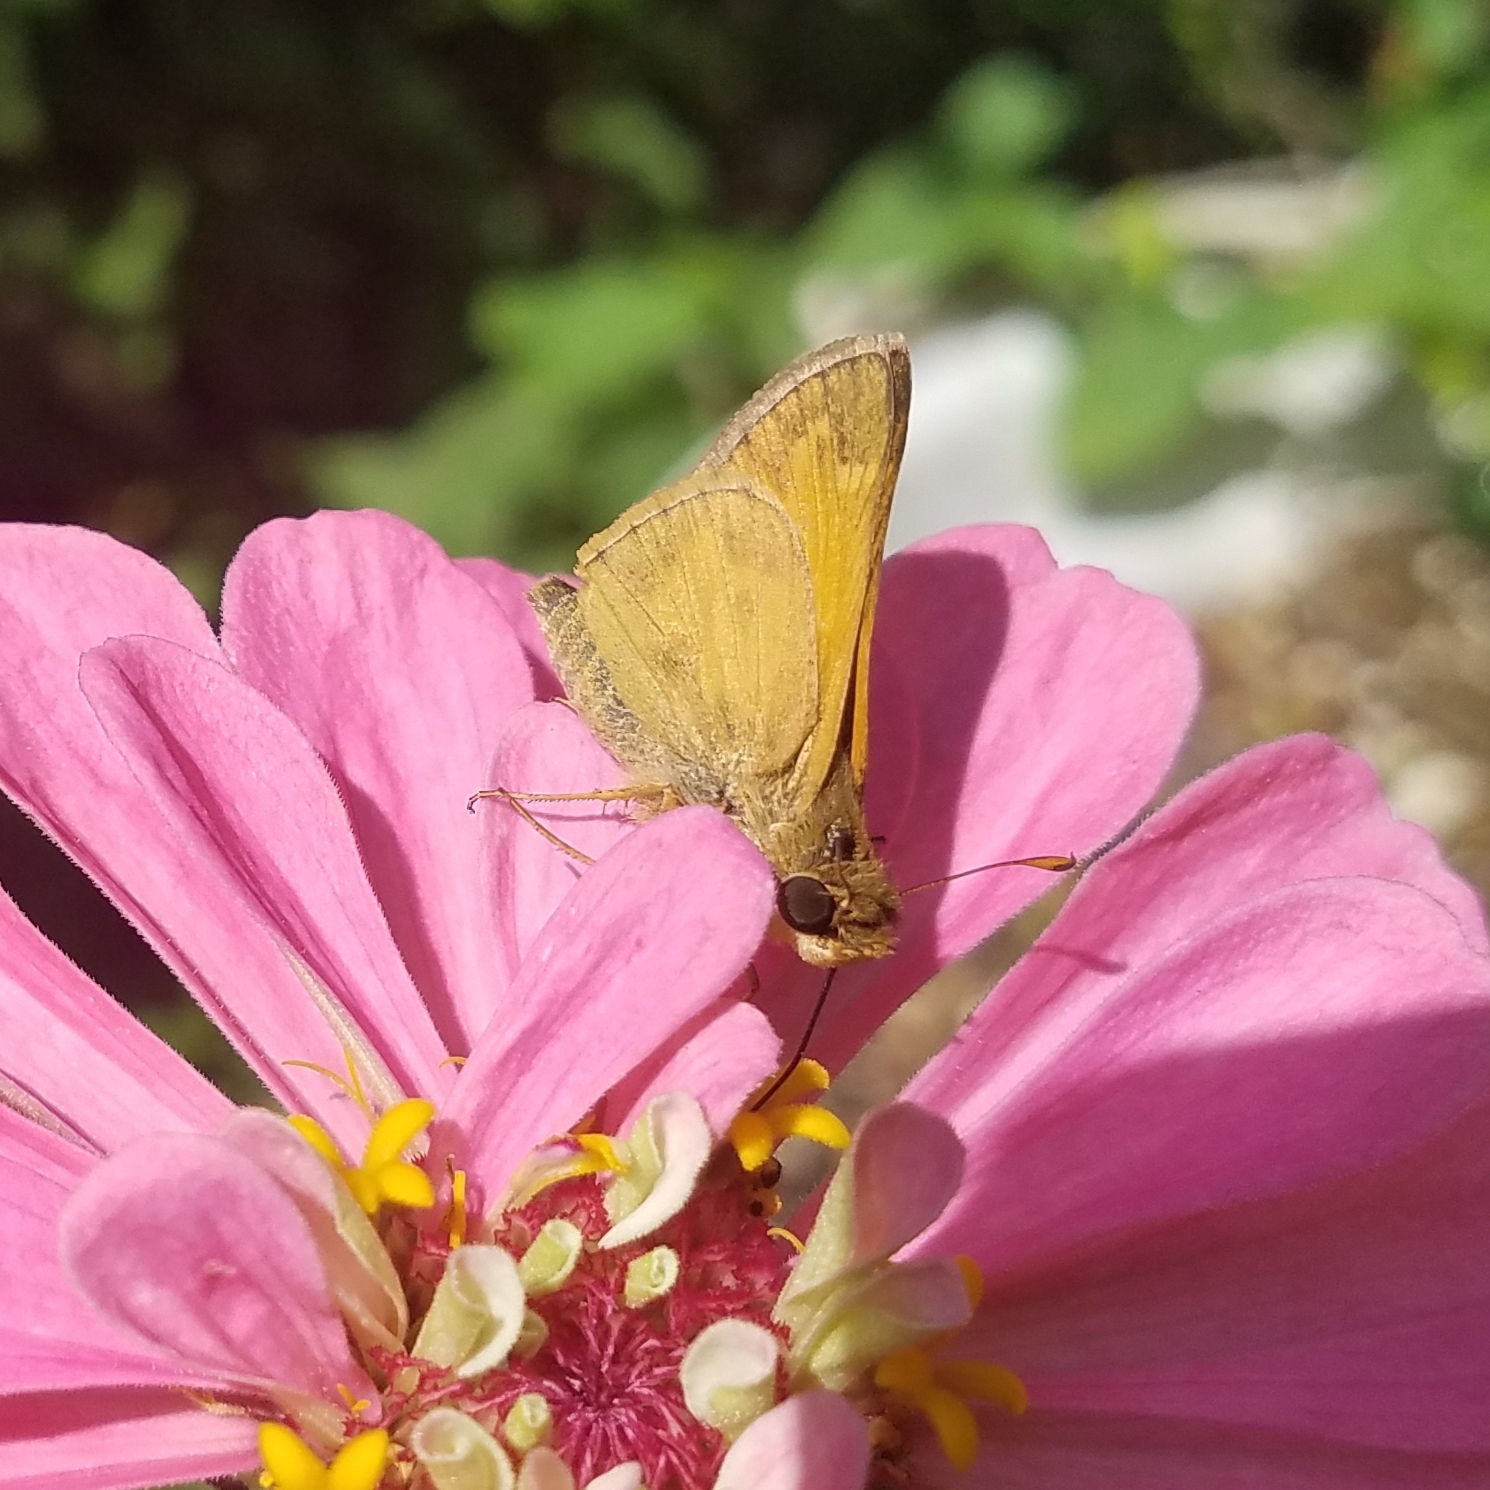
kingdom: Animalia
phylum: Arthropoda
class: Insecta
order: Lepidoptera
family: Hesperiidae
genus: Atalopedes
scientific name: Atalopedes
